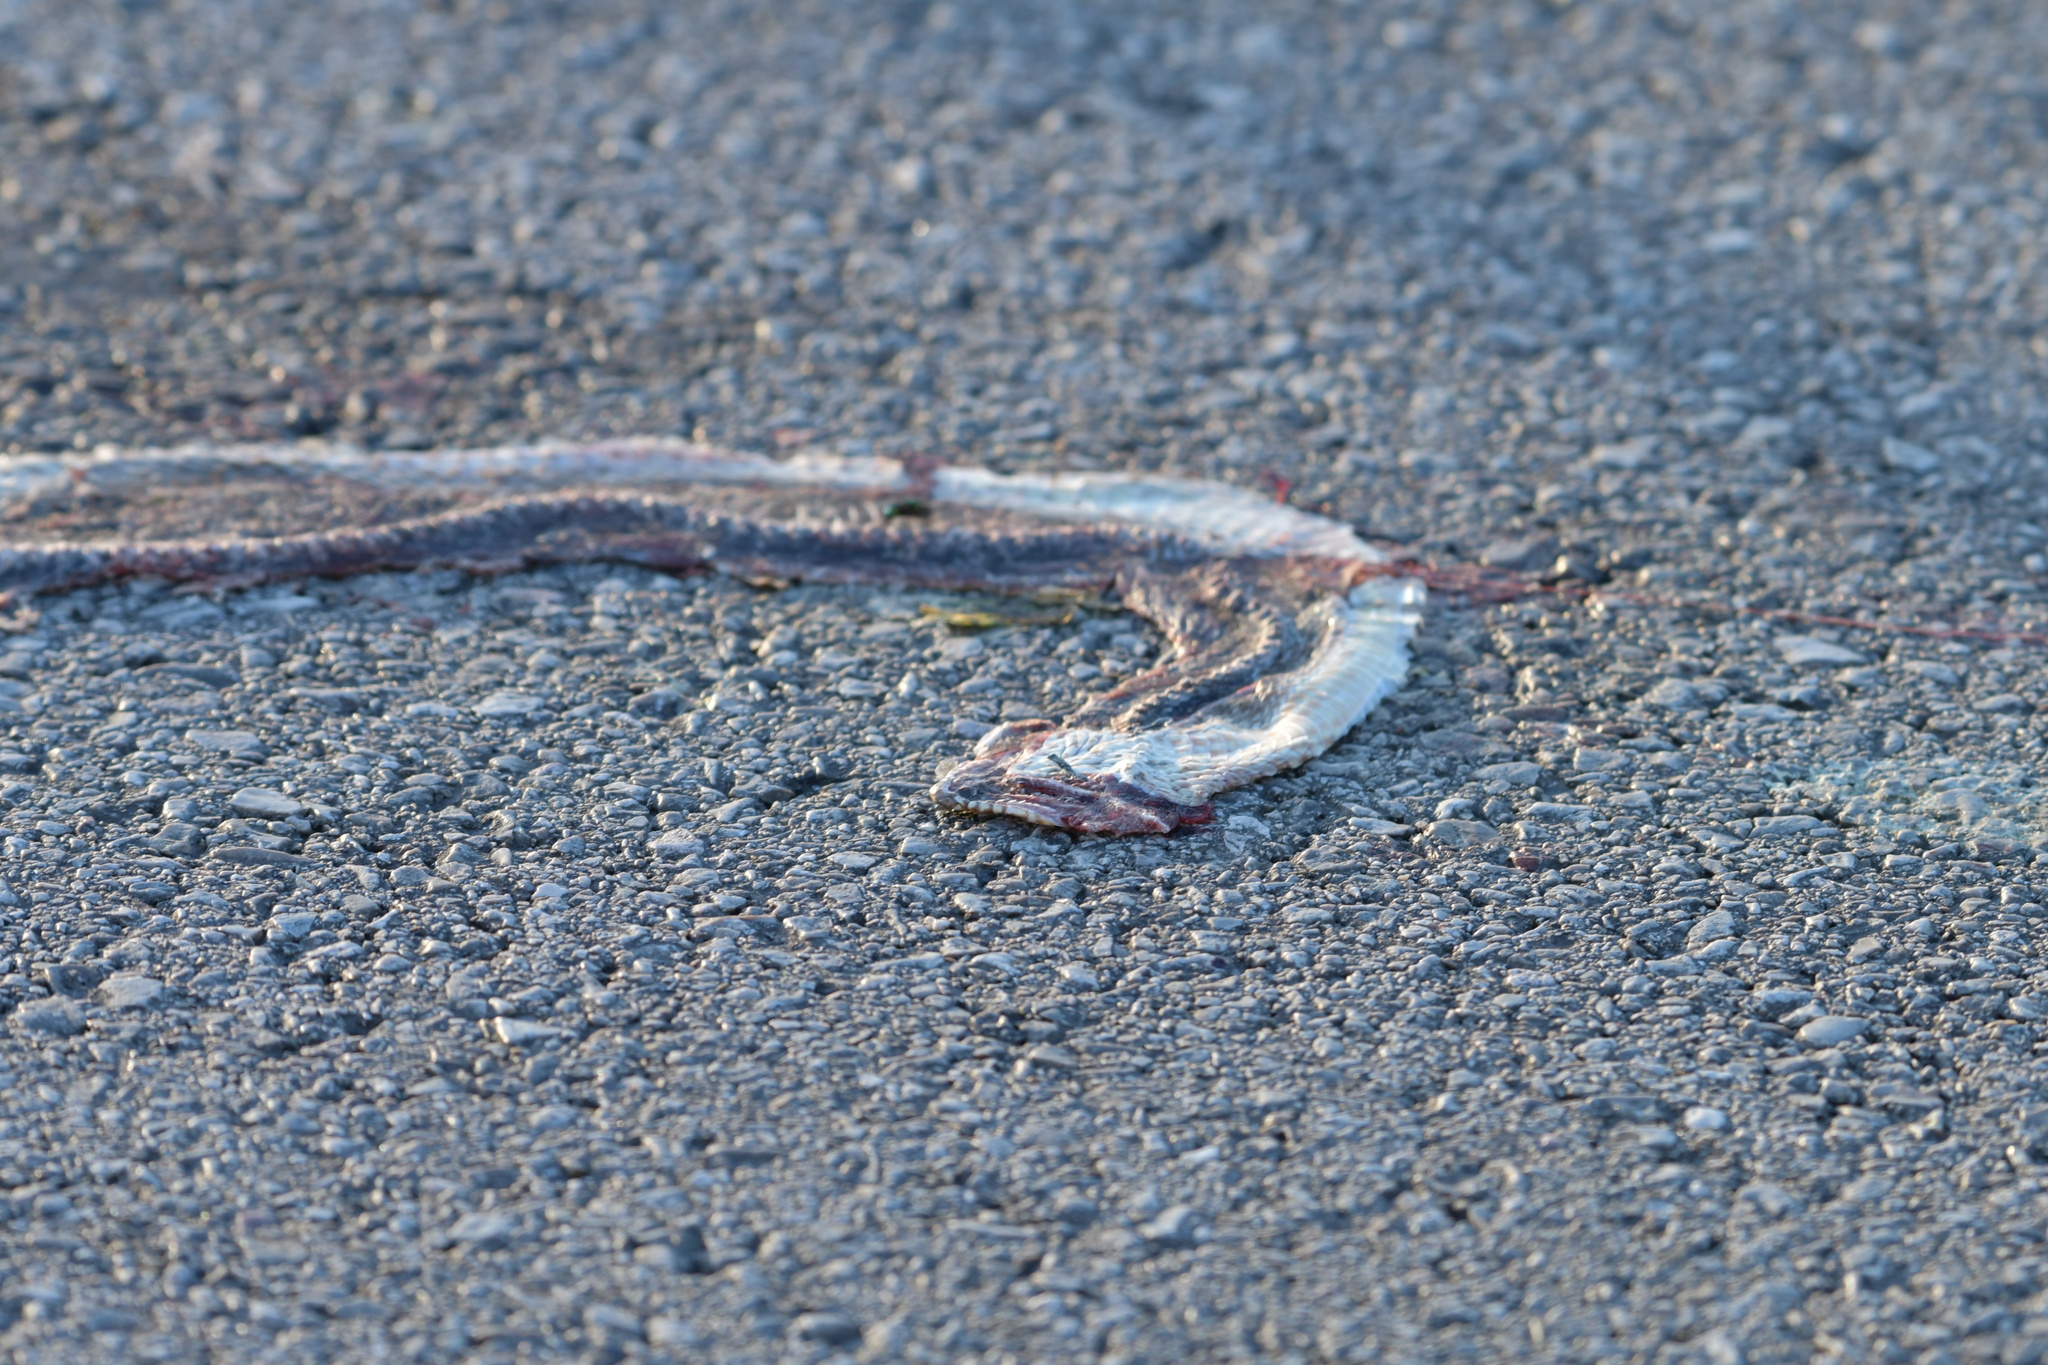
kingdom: Animalia
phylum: Chordata
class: Squamata
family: Colubridae
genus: Heterodon
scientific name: Heterodon platirhinos
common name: Eastern hognose snake
